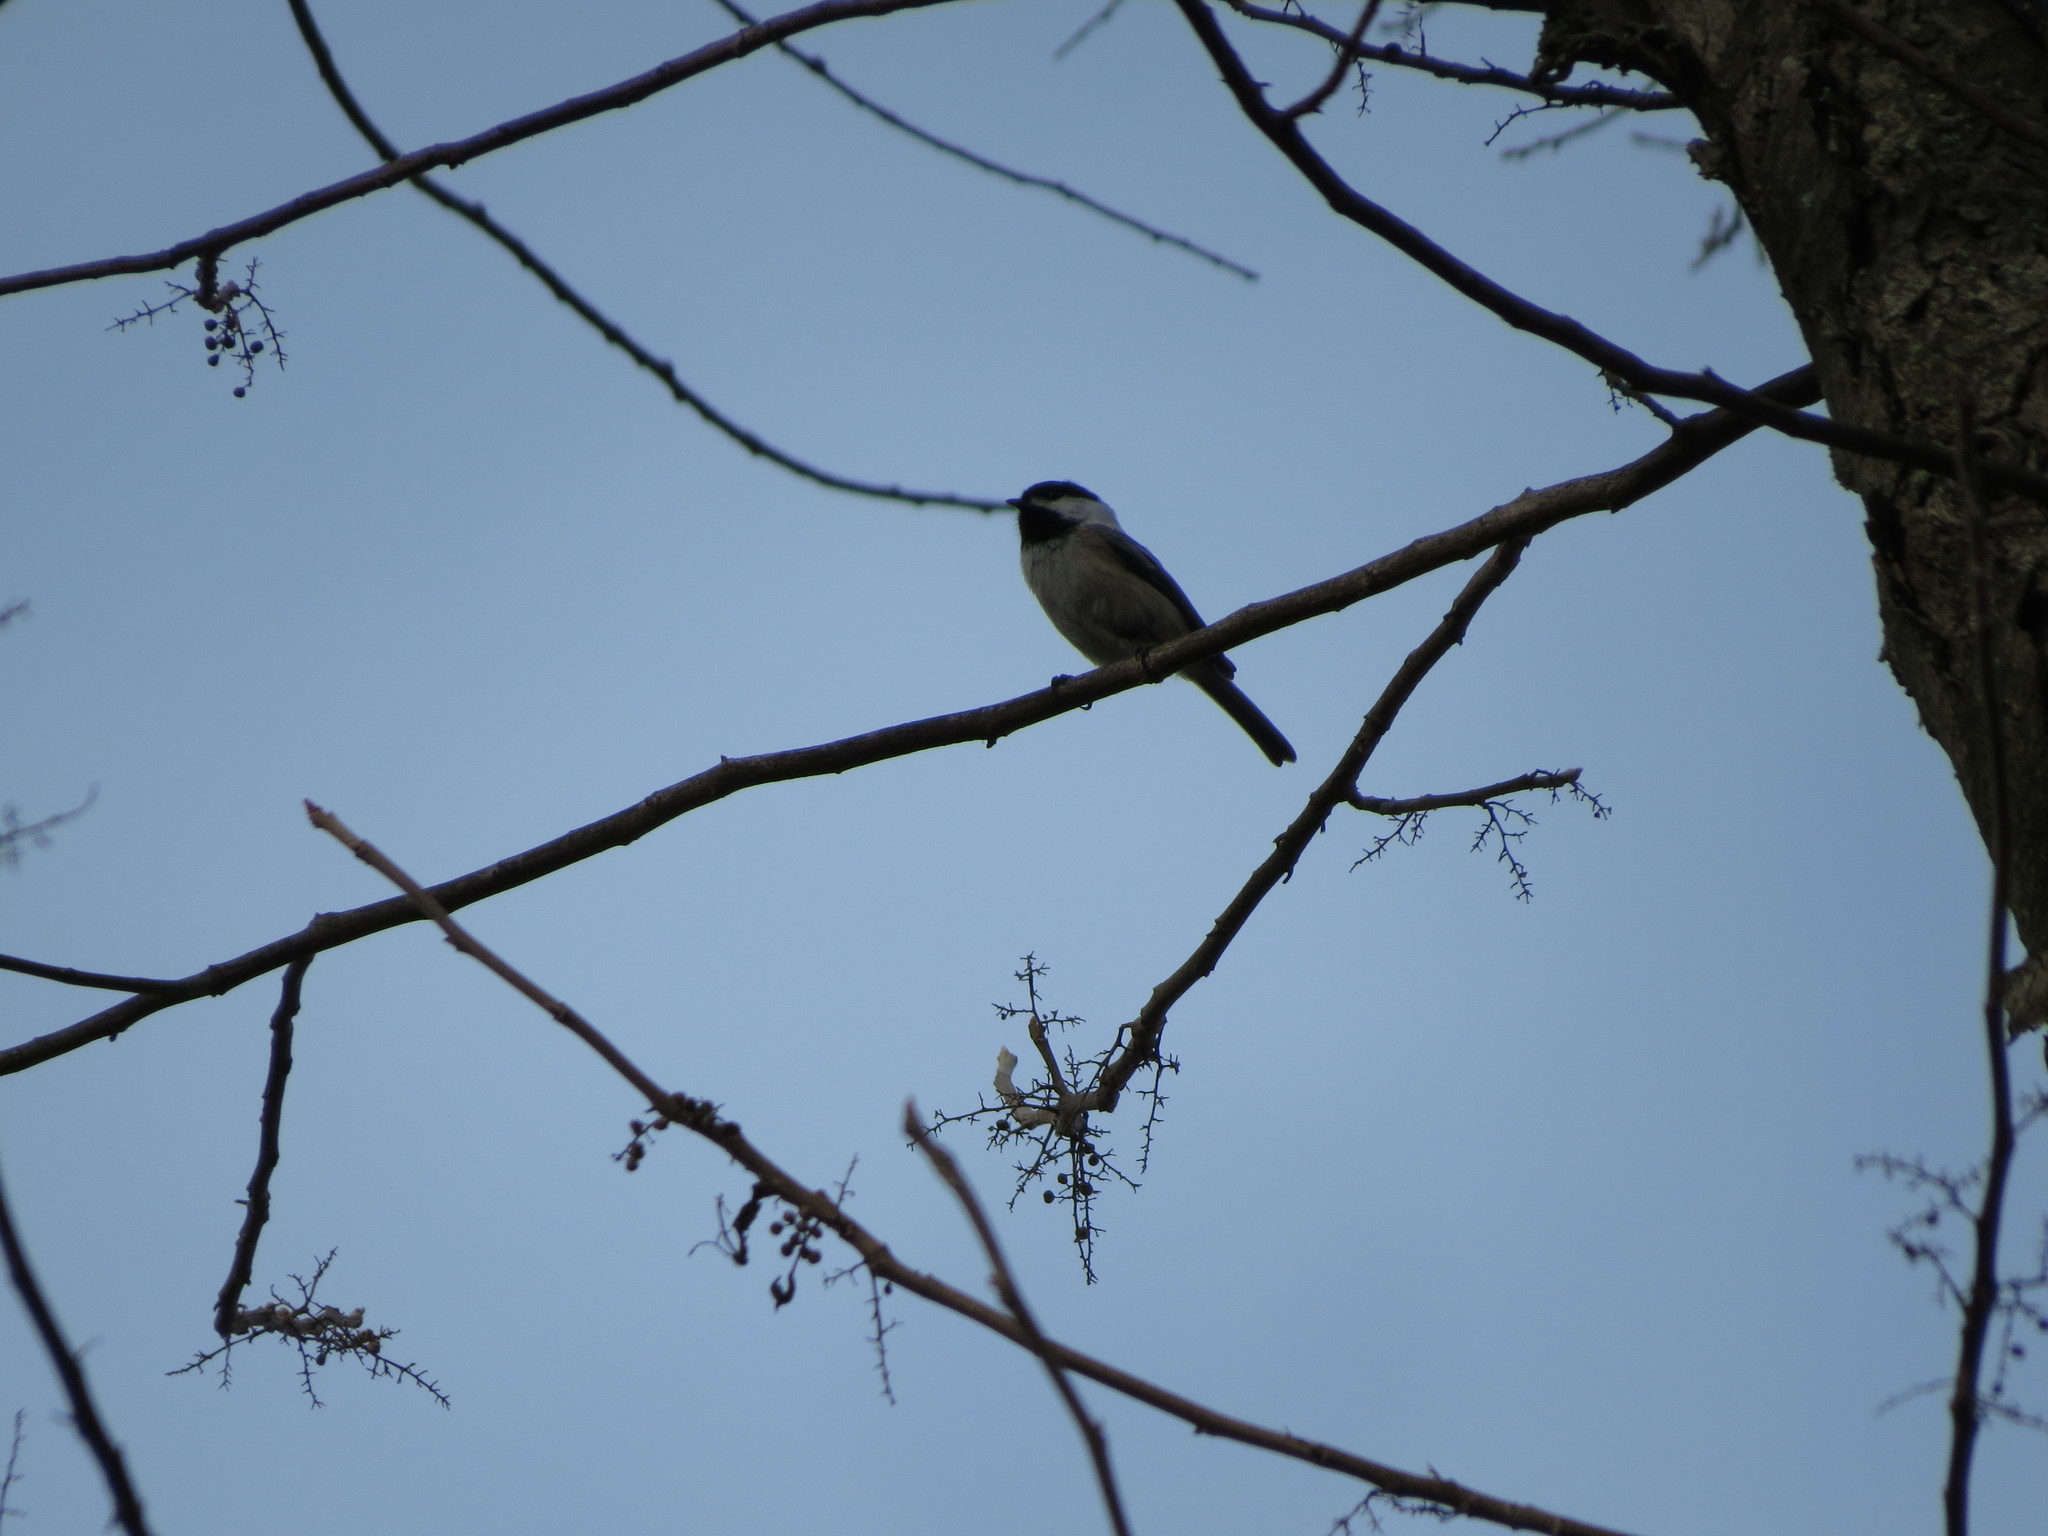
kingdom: Animalia
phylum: Chordata
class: Aves
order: Passeriformes
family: Paridae
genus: Poecile
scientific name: Poecile atricapillus
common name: Black-capped chickadee
